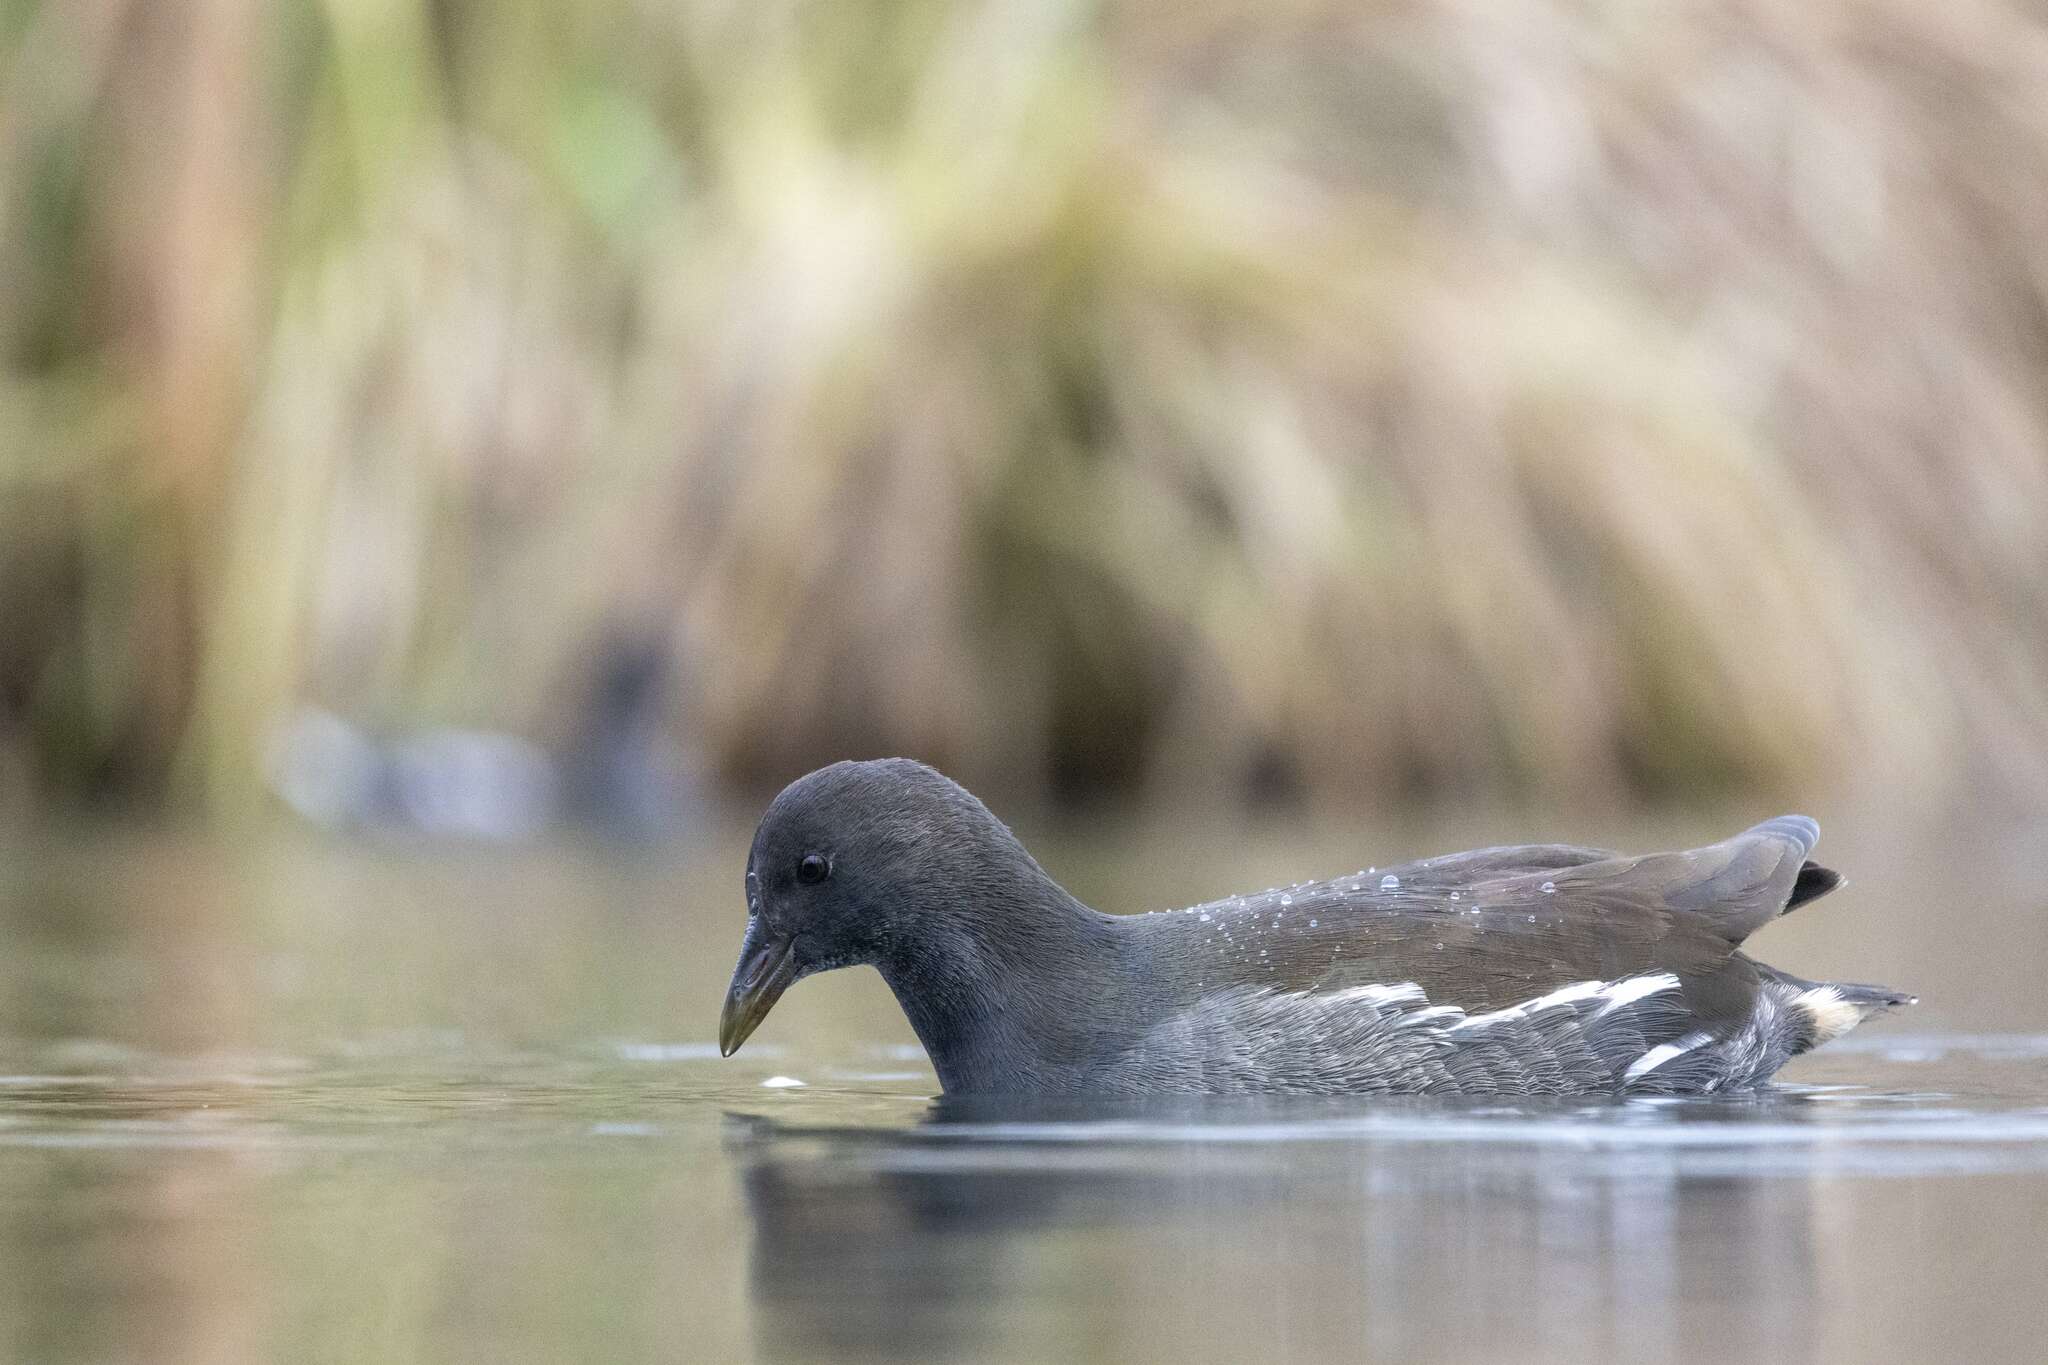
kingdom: Animalia
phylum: Chordata
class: Aves
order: Gruiformes
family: Rallidae
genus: Gallinula
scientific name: Gallinula chloropus
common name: Common moorhen
